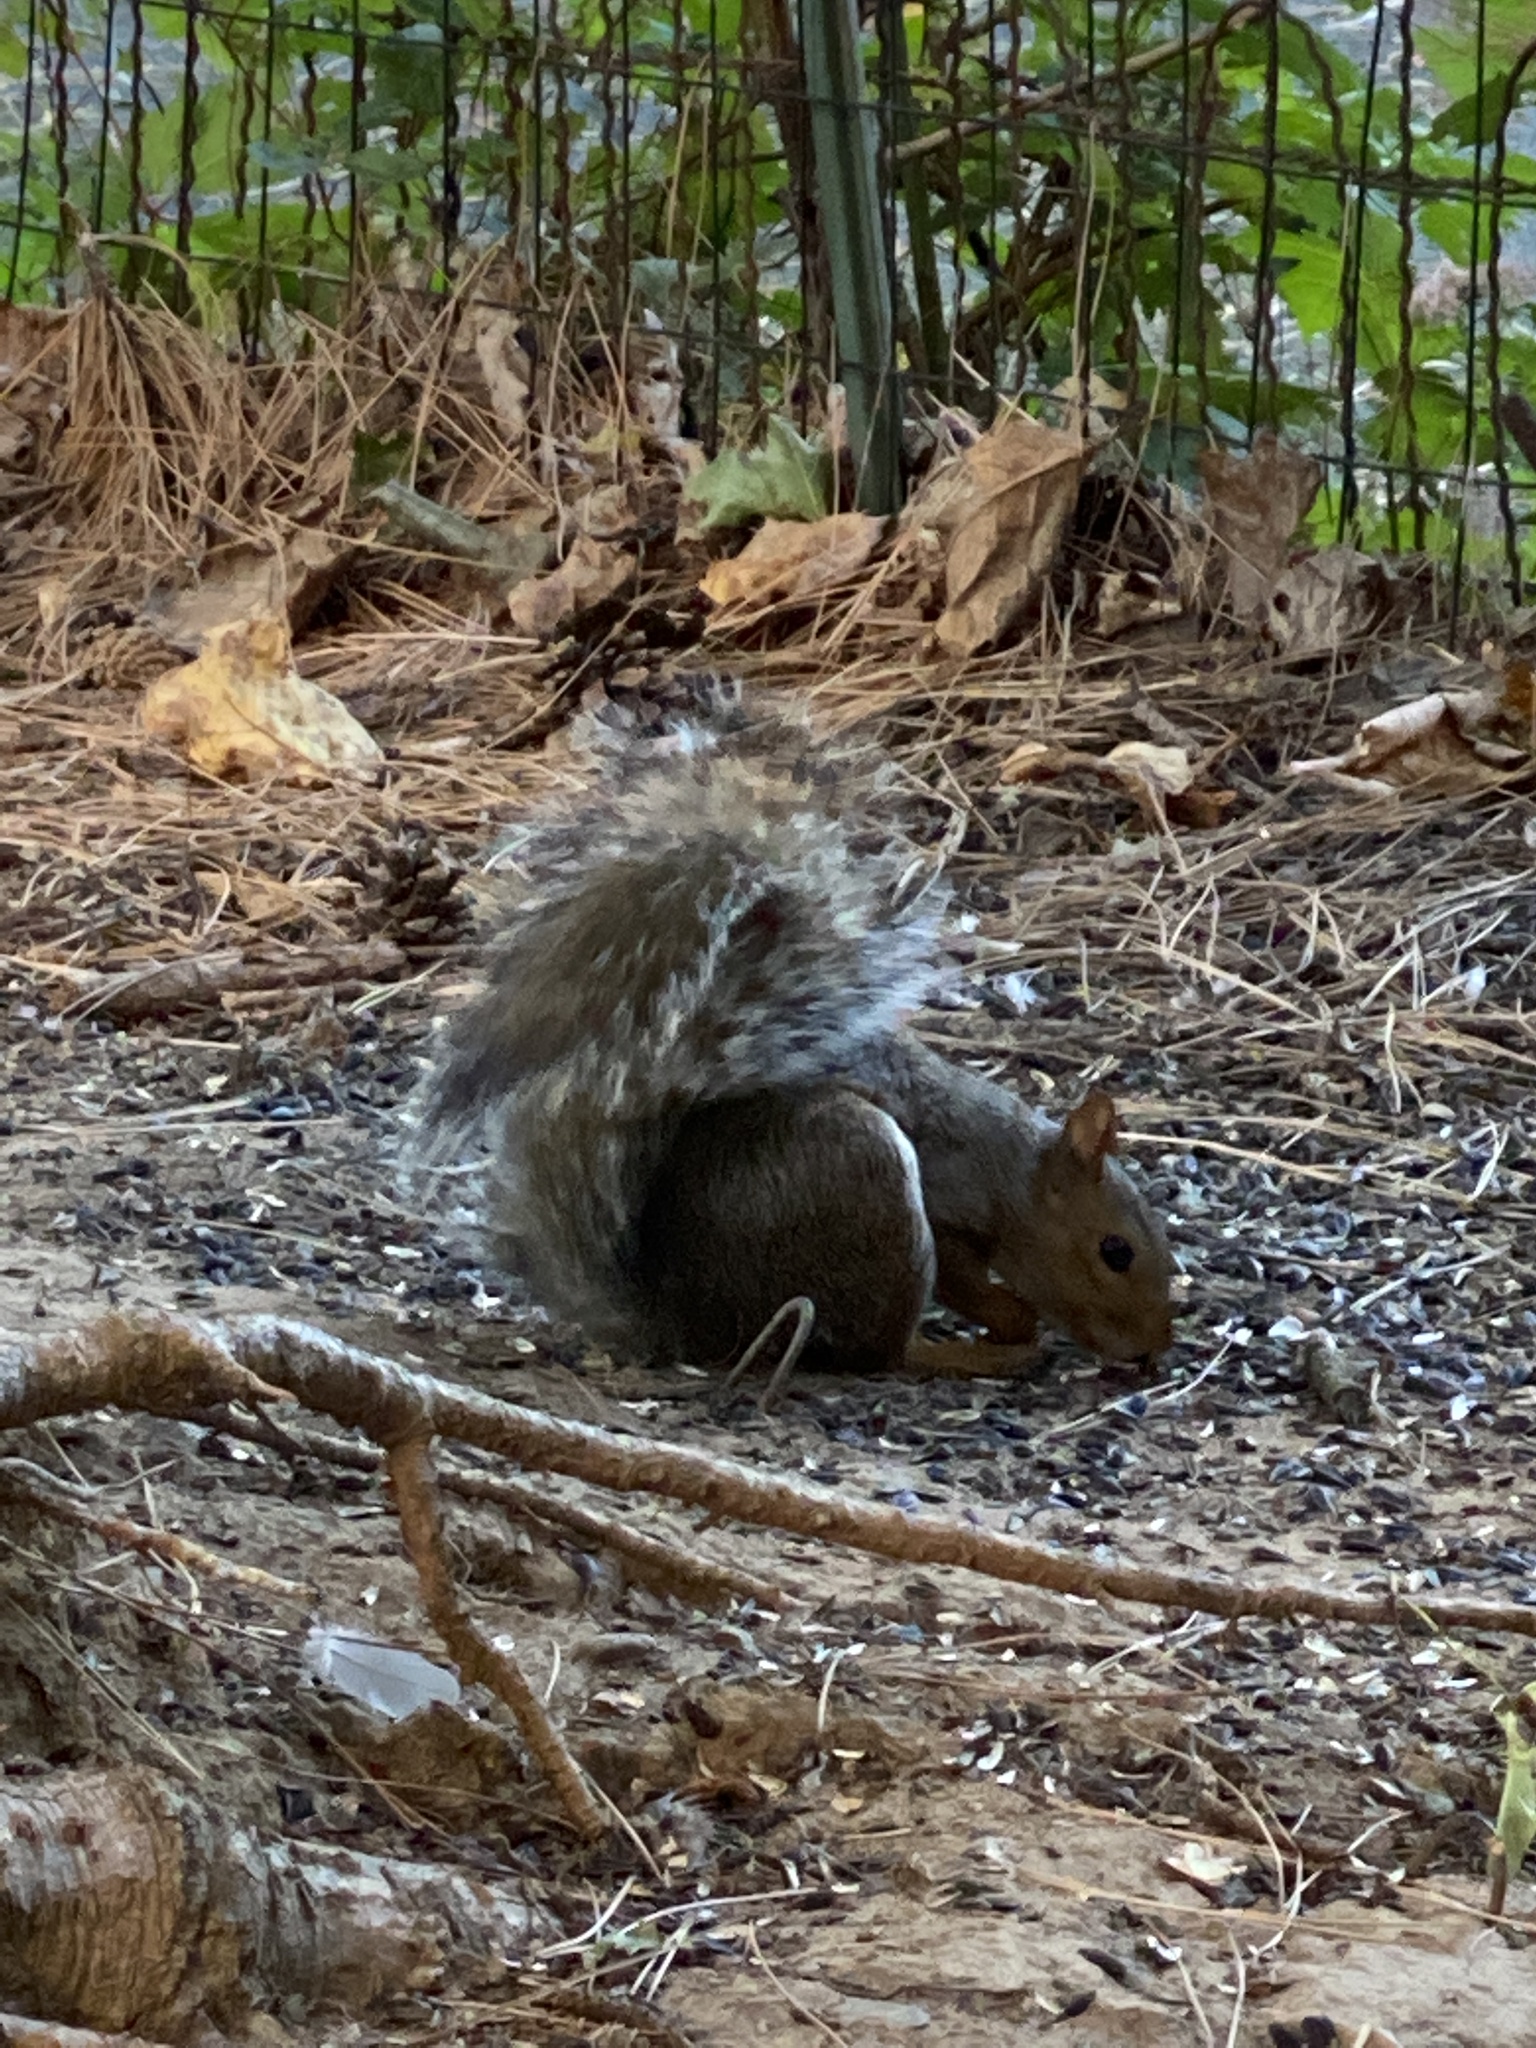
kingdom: Animalia
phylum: Chordata
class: Mammalia
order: Rodentia
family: Sciuridae
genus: Sciurus
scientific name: Sciurus carolinensis
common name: Eastern gray squirrel
